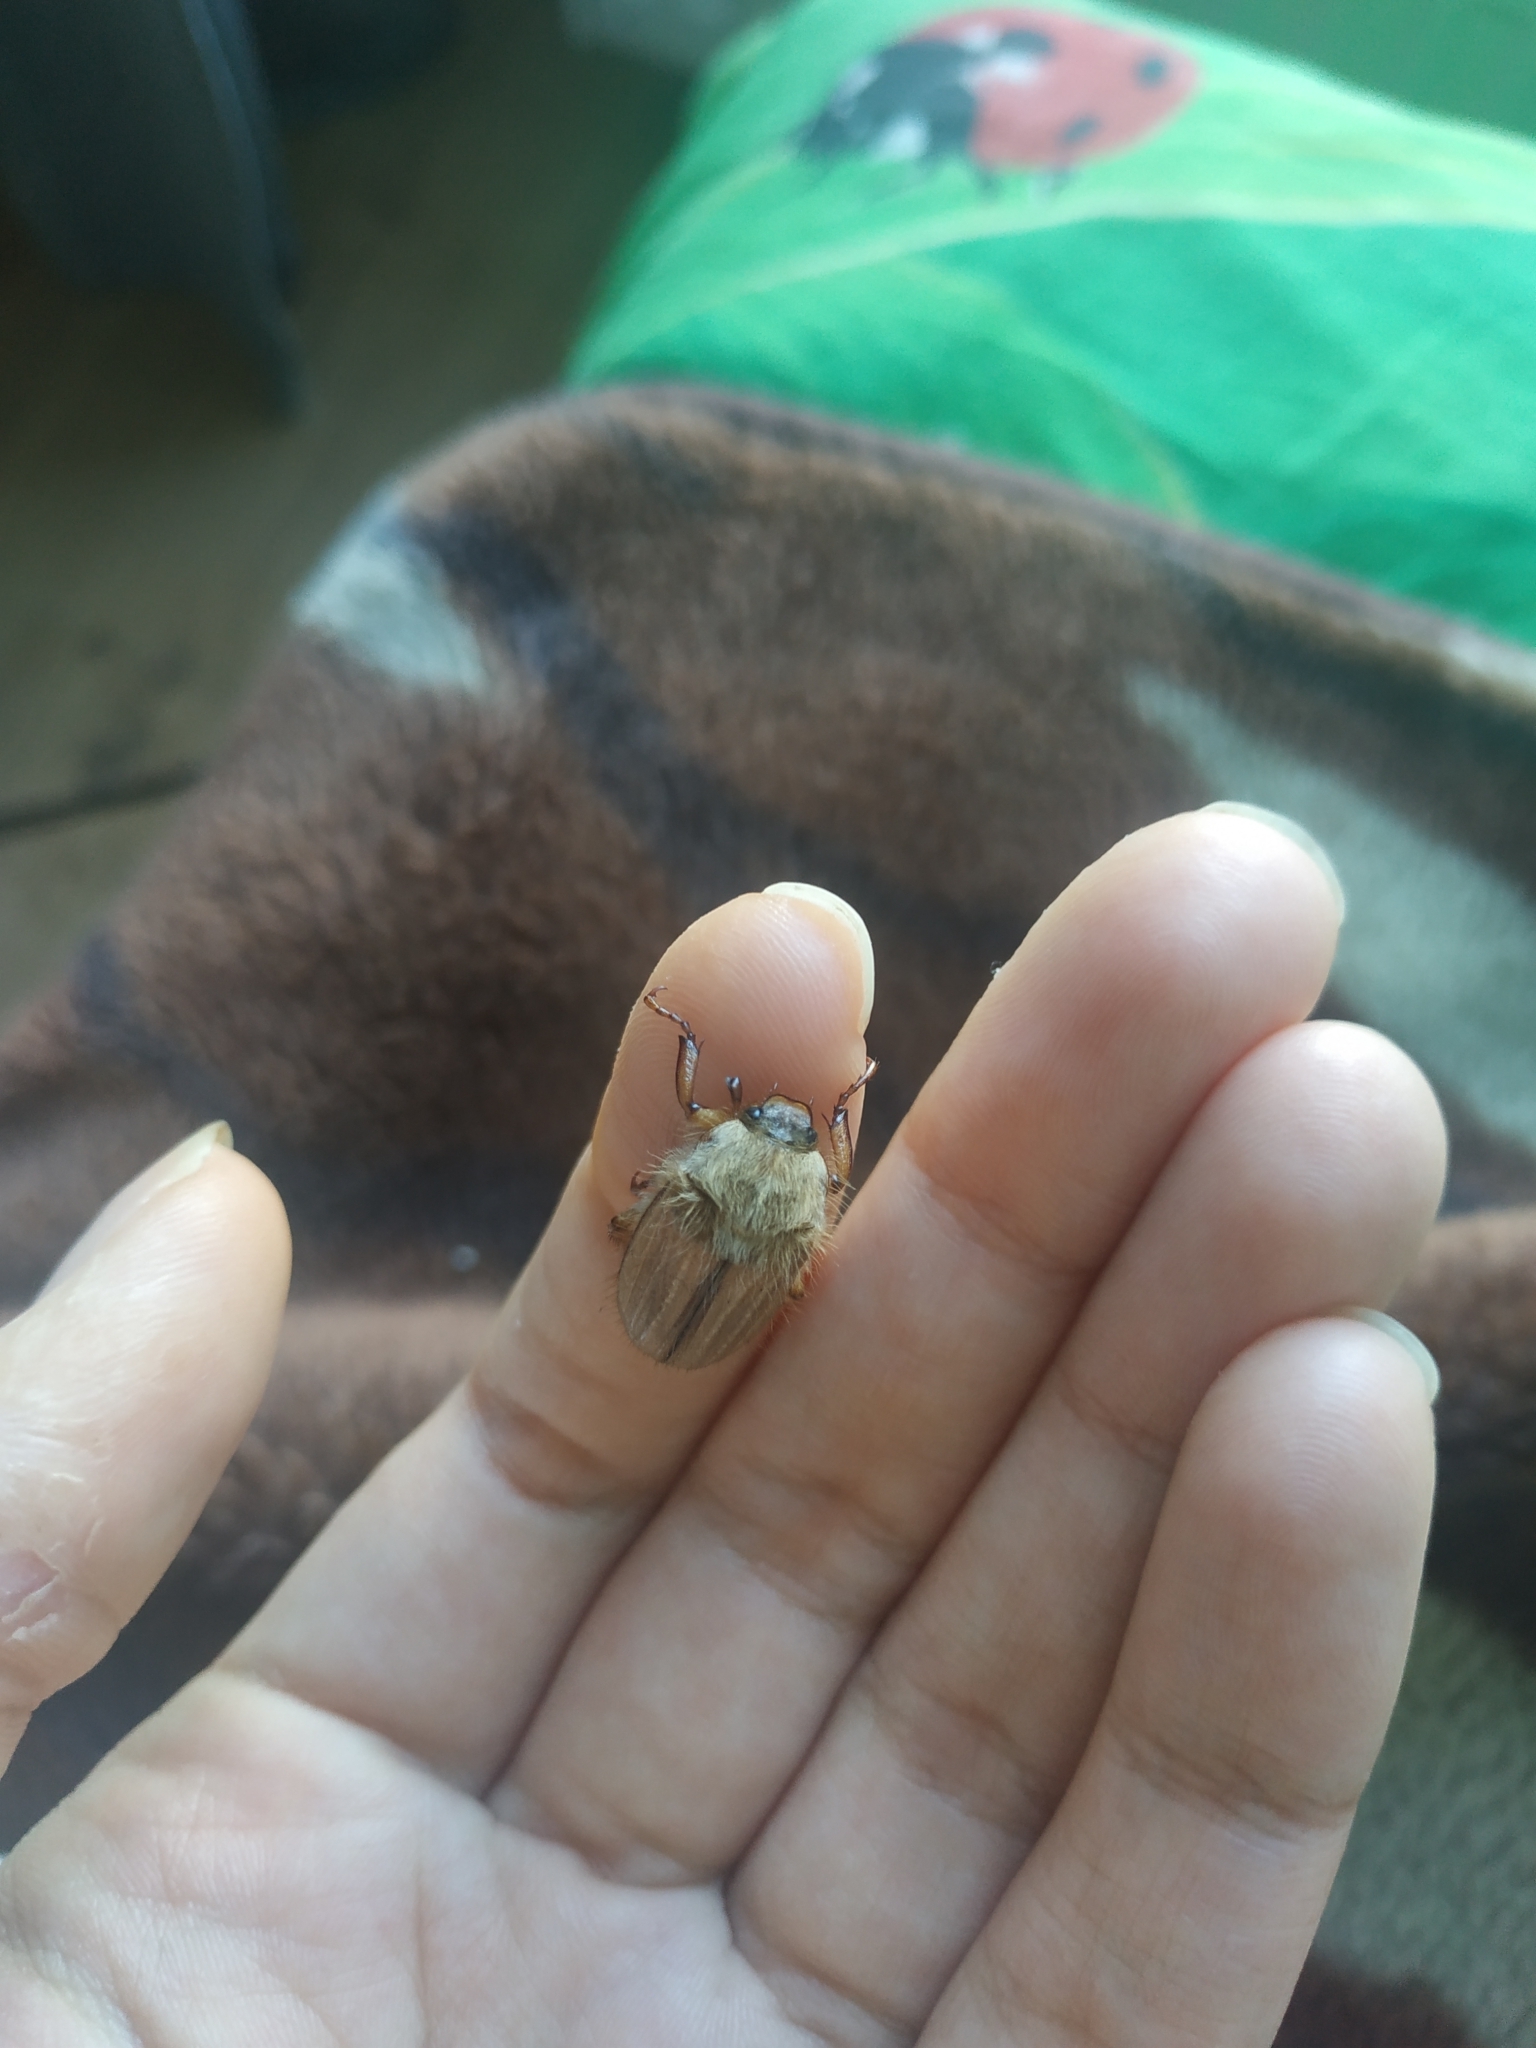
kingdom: Animalia
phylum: Arthropoda
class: Insecta
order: Coleoptera
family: Scarabaeidae
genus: Amphimallon
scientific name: Amphimallon solstitiale
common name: Summer chafer
